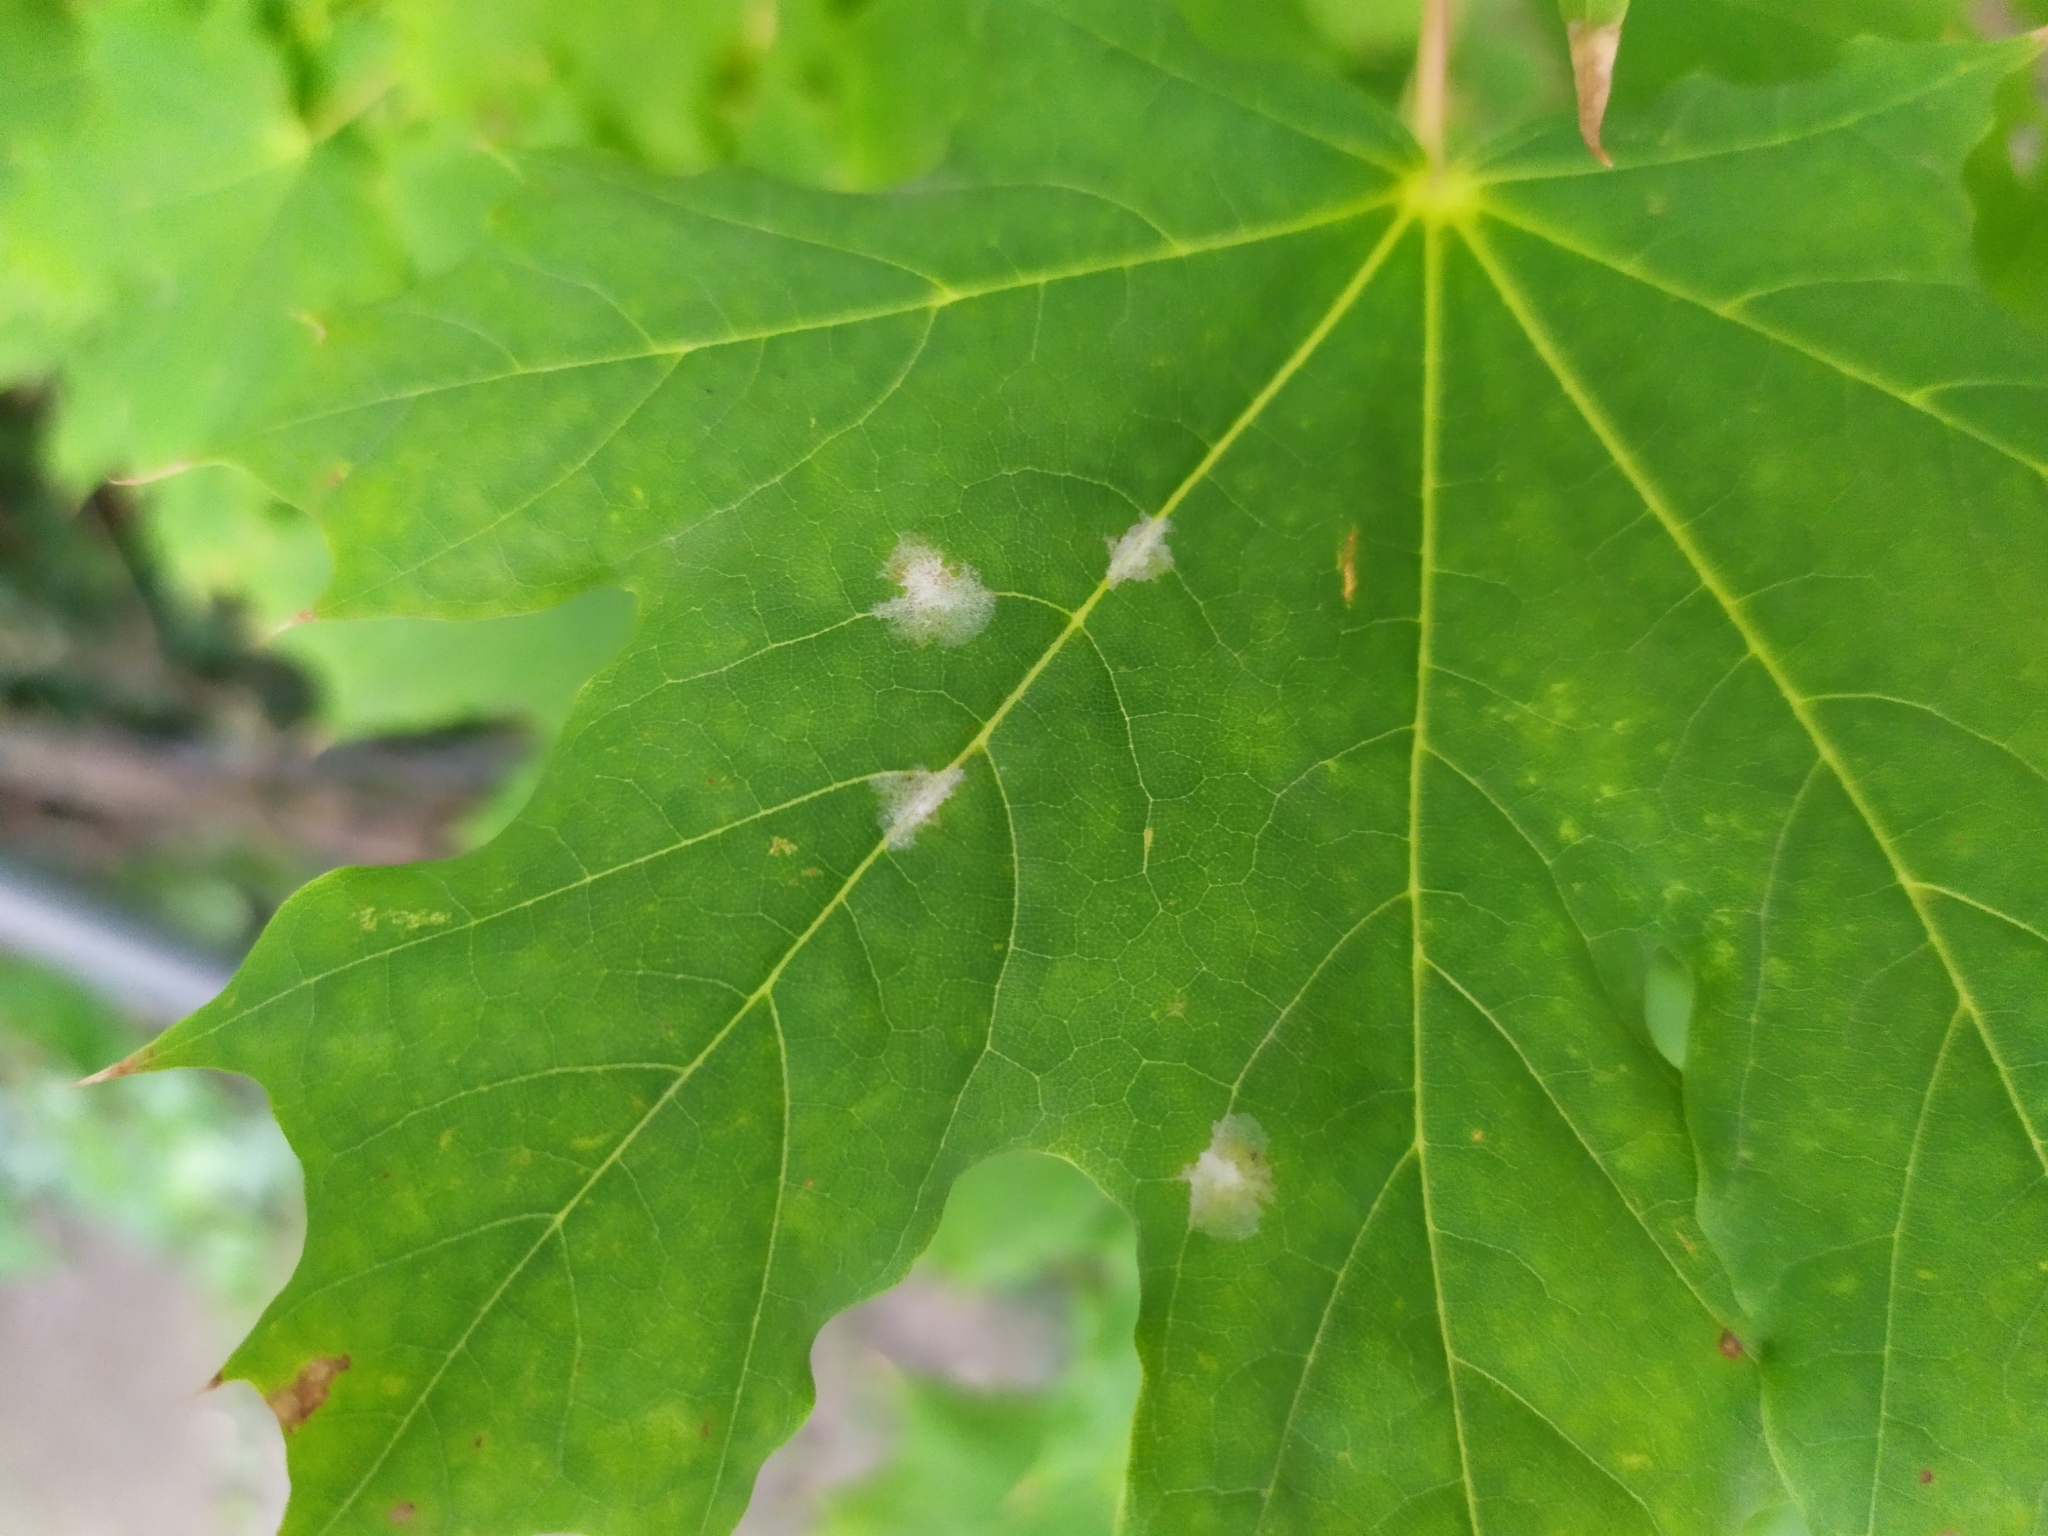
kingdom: Fungi
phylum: Ascomycota
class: Leotiomycetes
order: Helotiales
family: Erysiphaceae
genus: Sawadaea
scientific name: Sawadaea tulasnei
